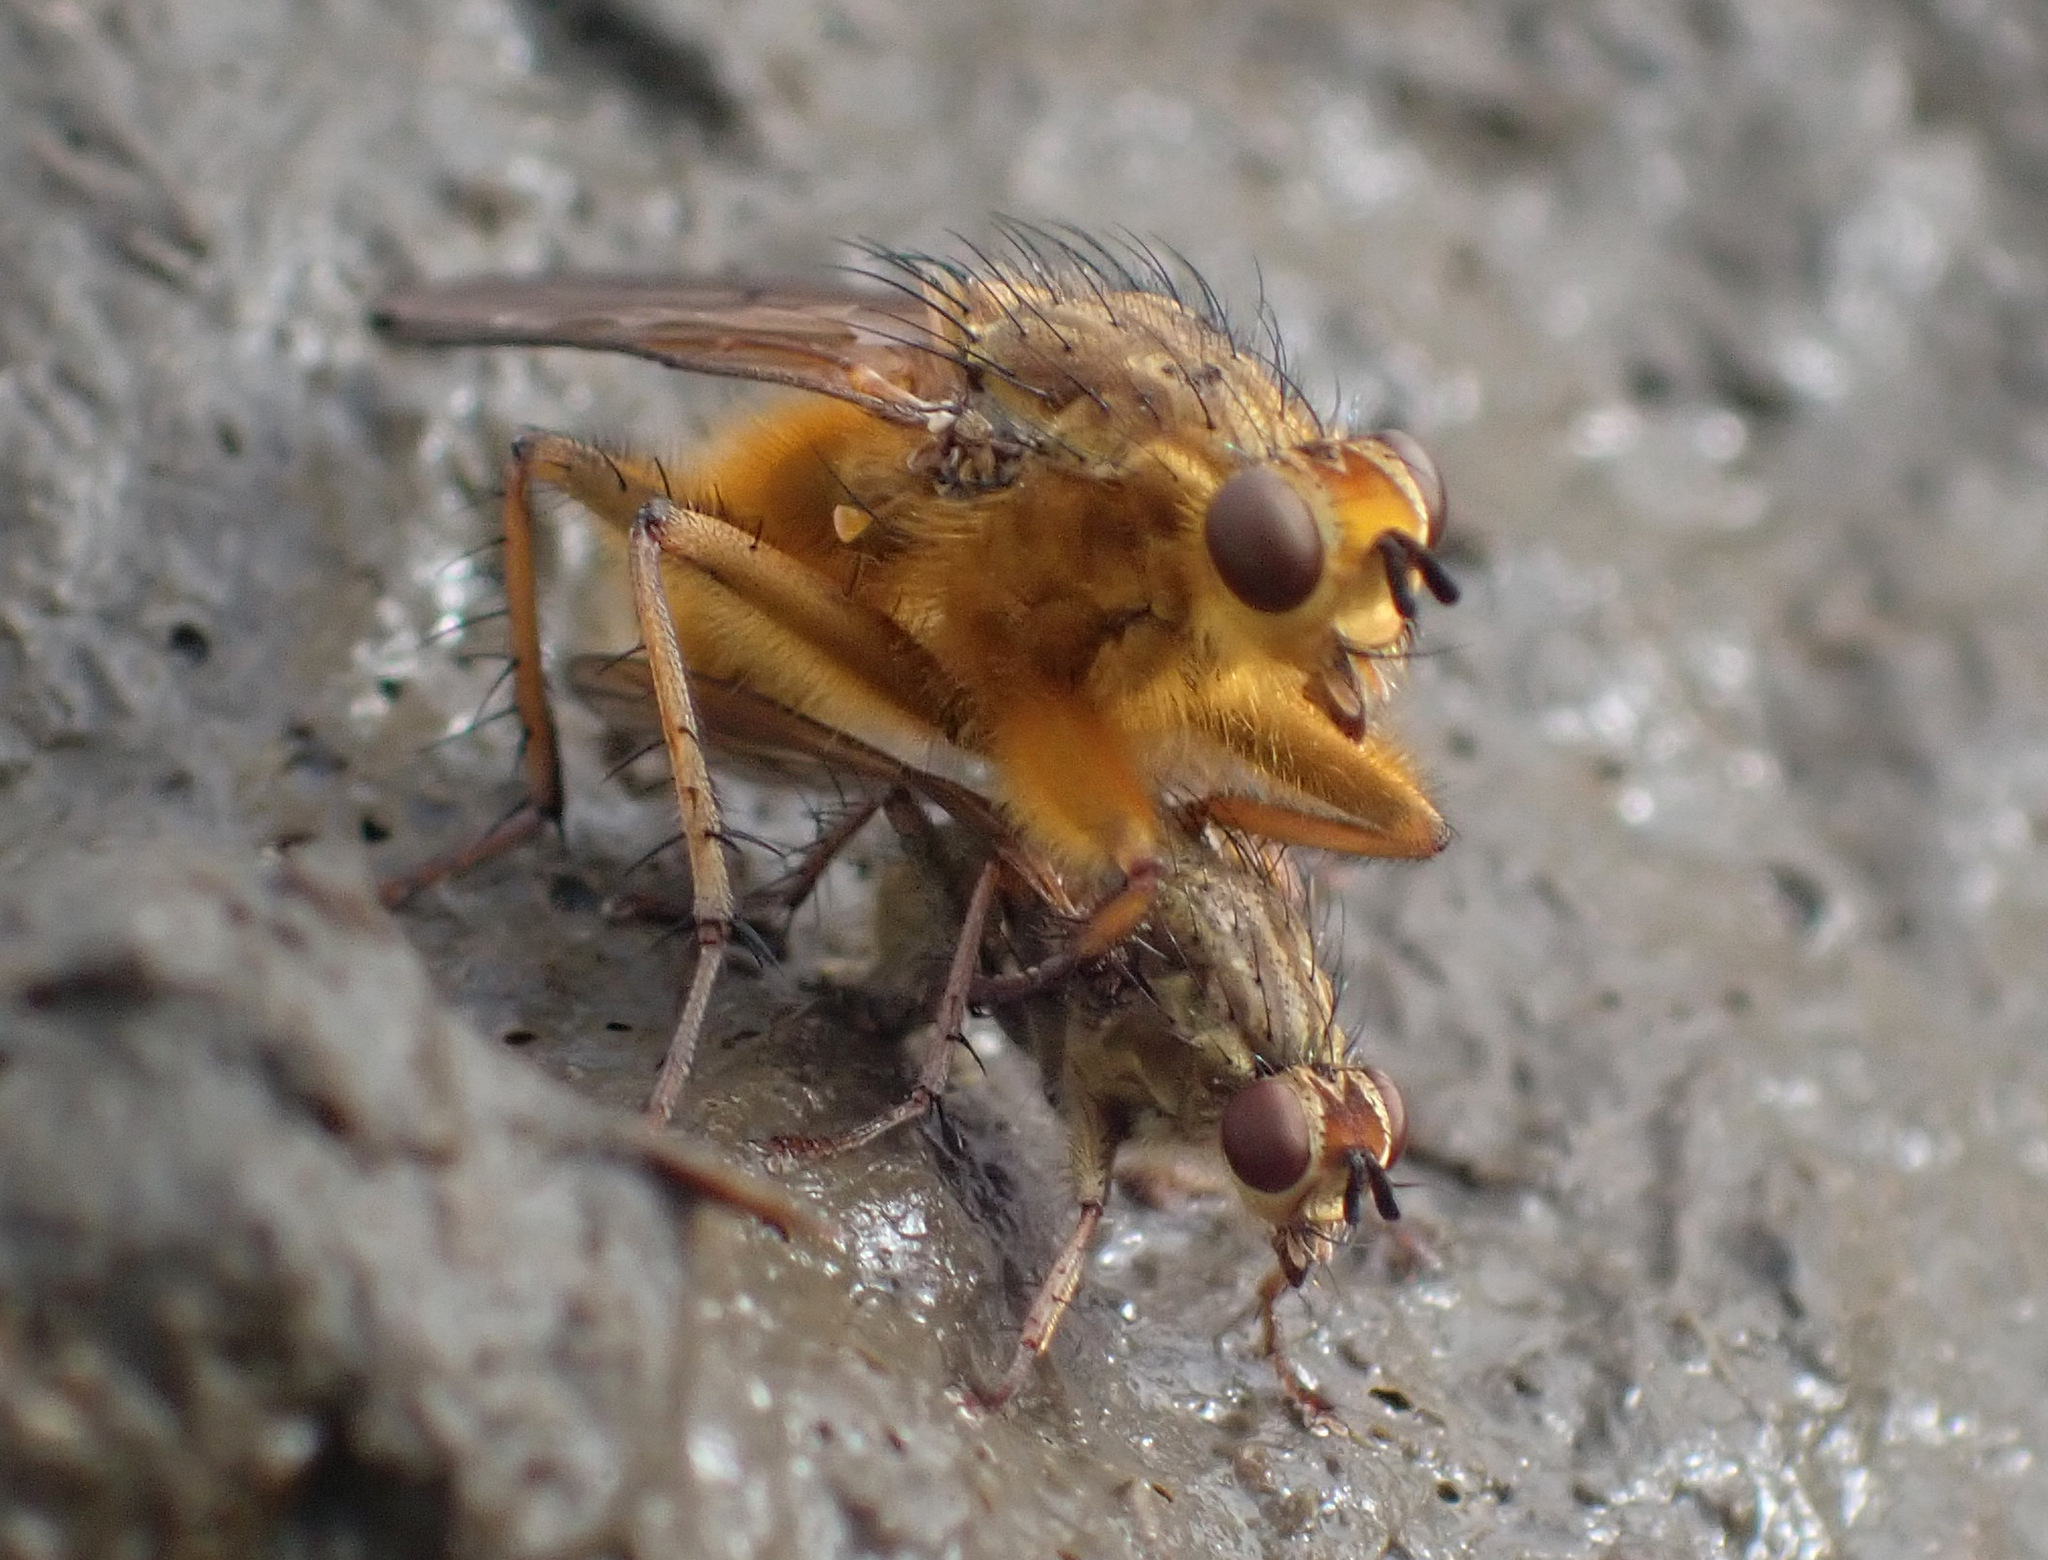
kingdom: Animalia
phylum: Arthropoda
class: Insecta
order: Diptera
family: Scathophagidae
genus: Scathophaga
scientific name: Scathophaga stercoraria
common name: Yellow dung fly
